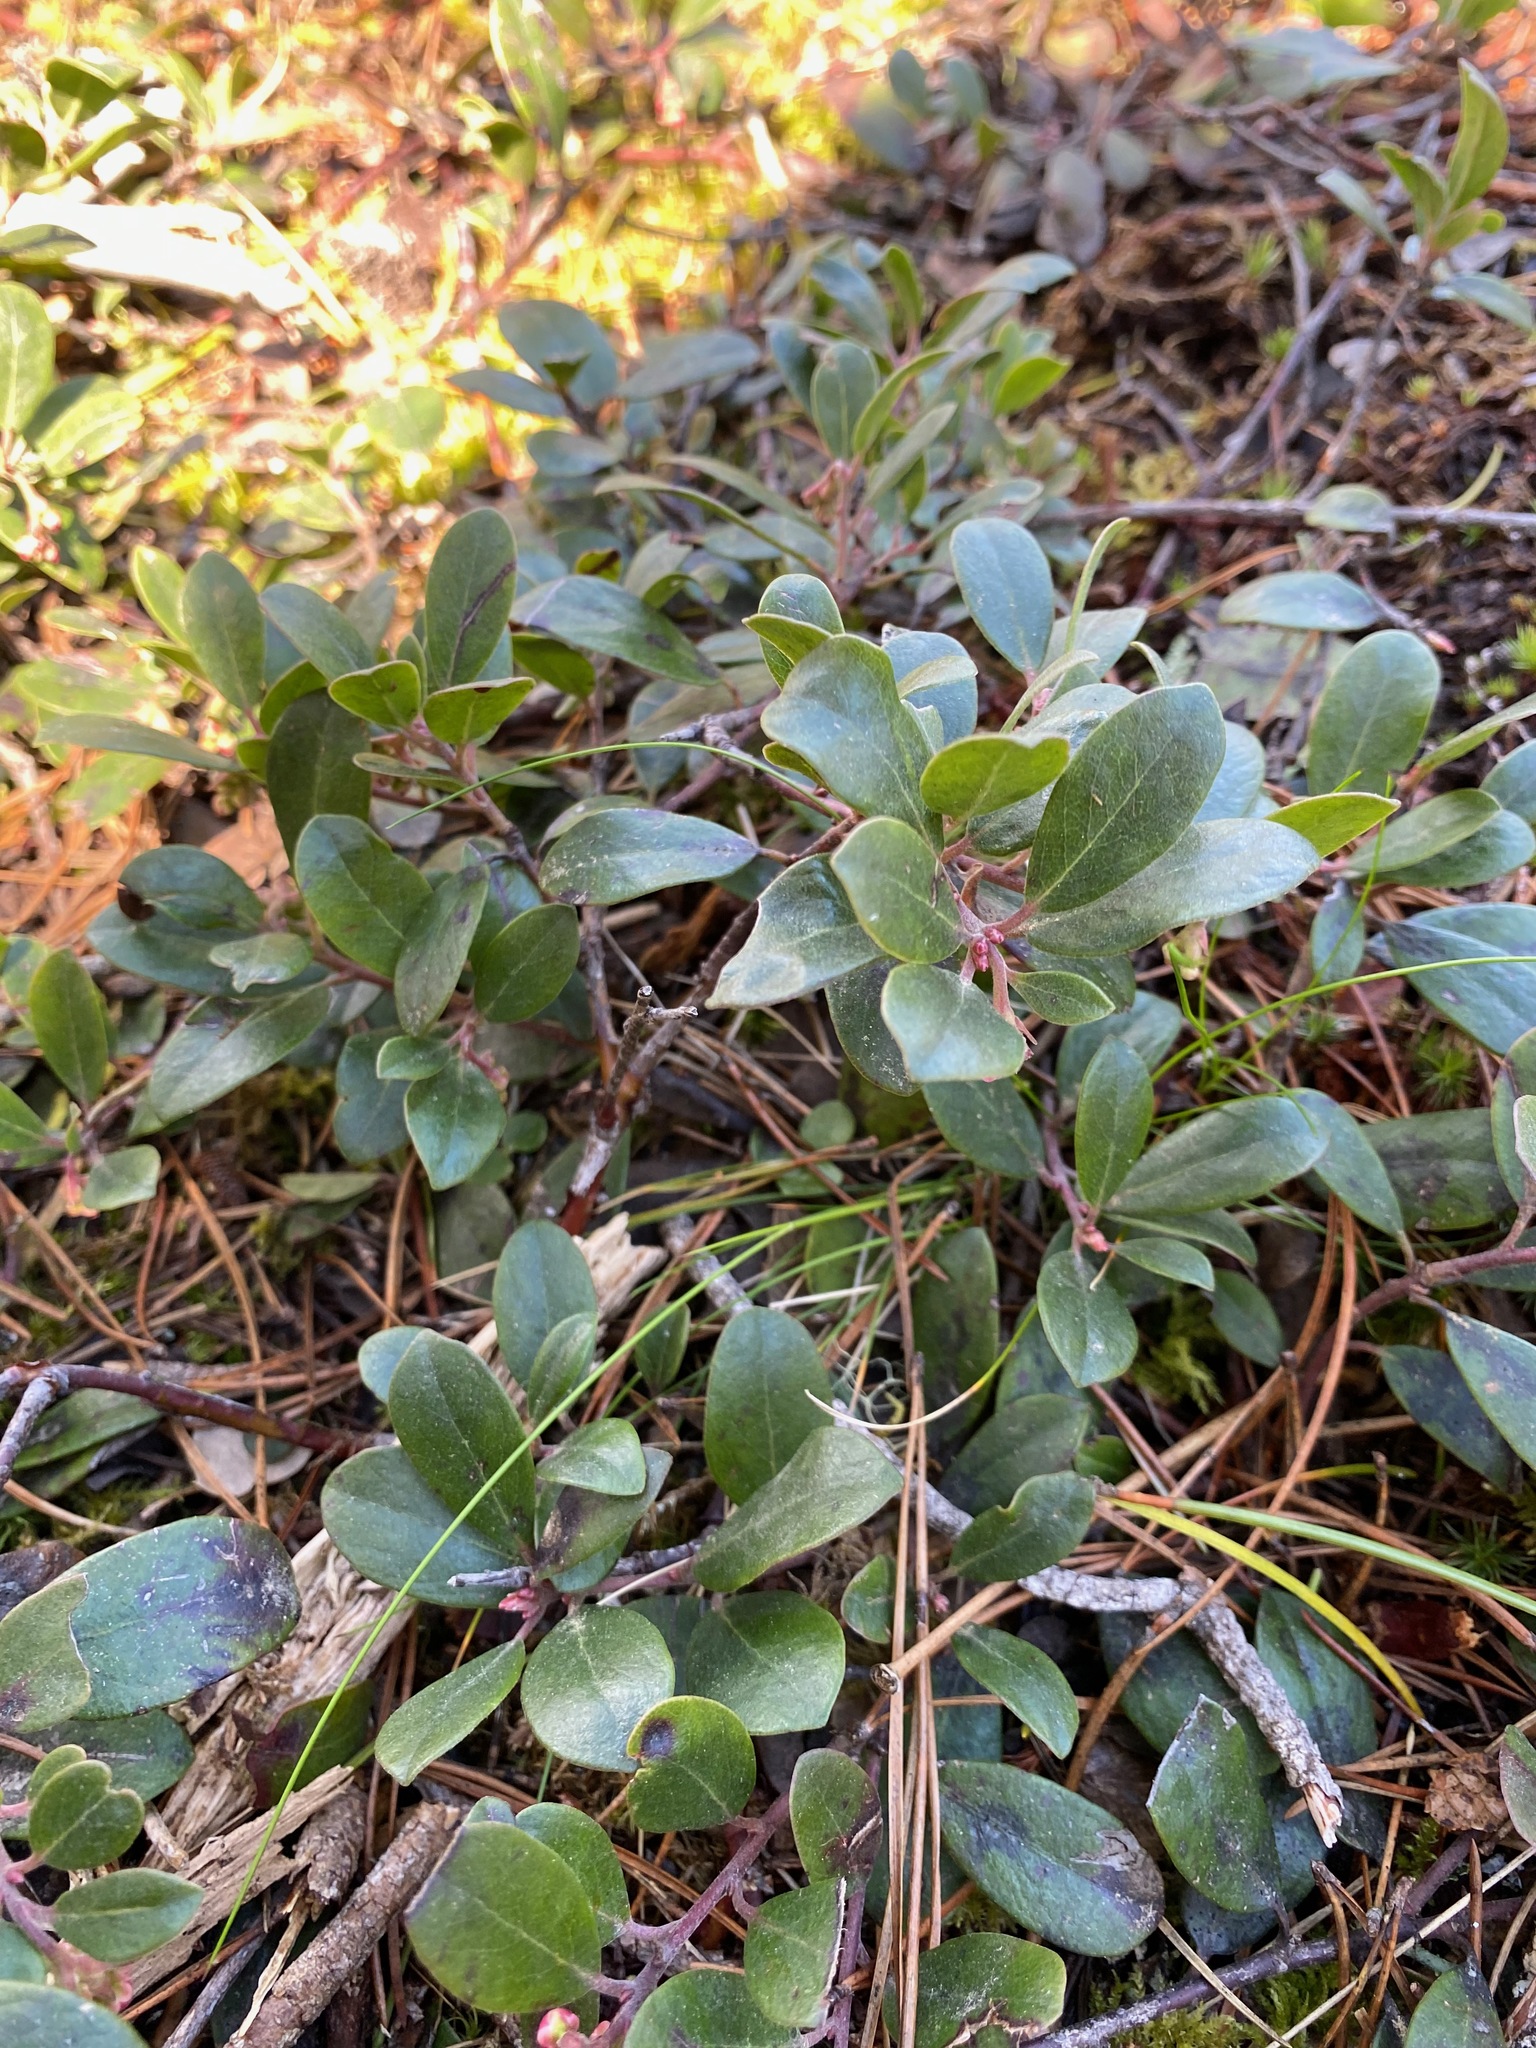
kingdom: Plantae
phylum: Tracheophyta
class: Magnoliopsida
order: Ericales
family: Ericaceae
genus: Arctostaphylos
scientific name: Arctostaphylos uva-ursi
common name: Bearberry
